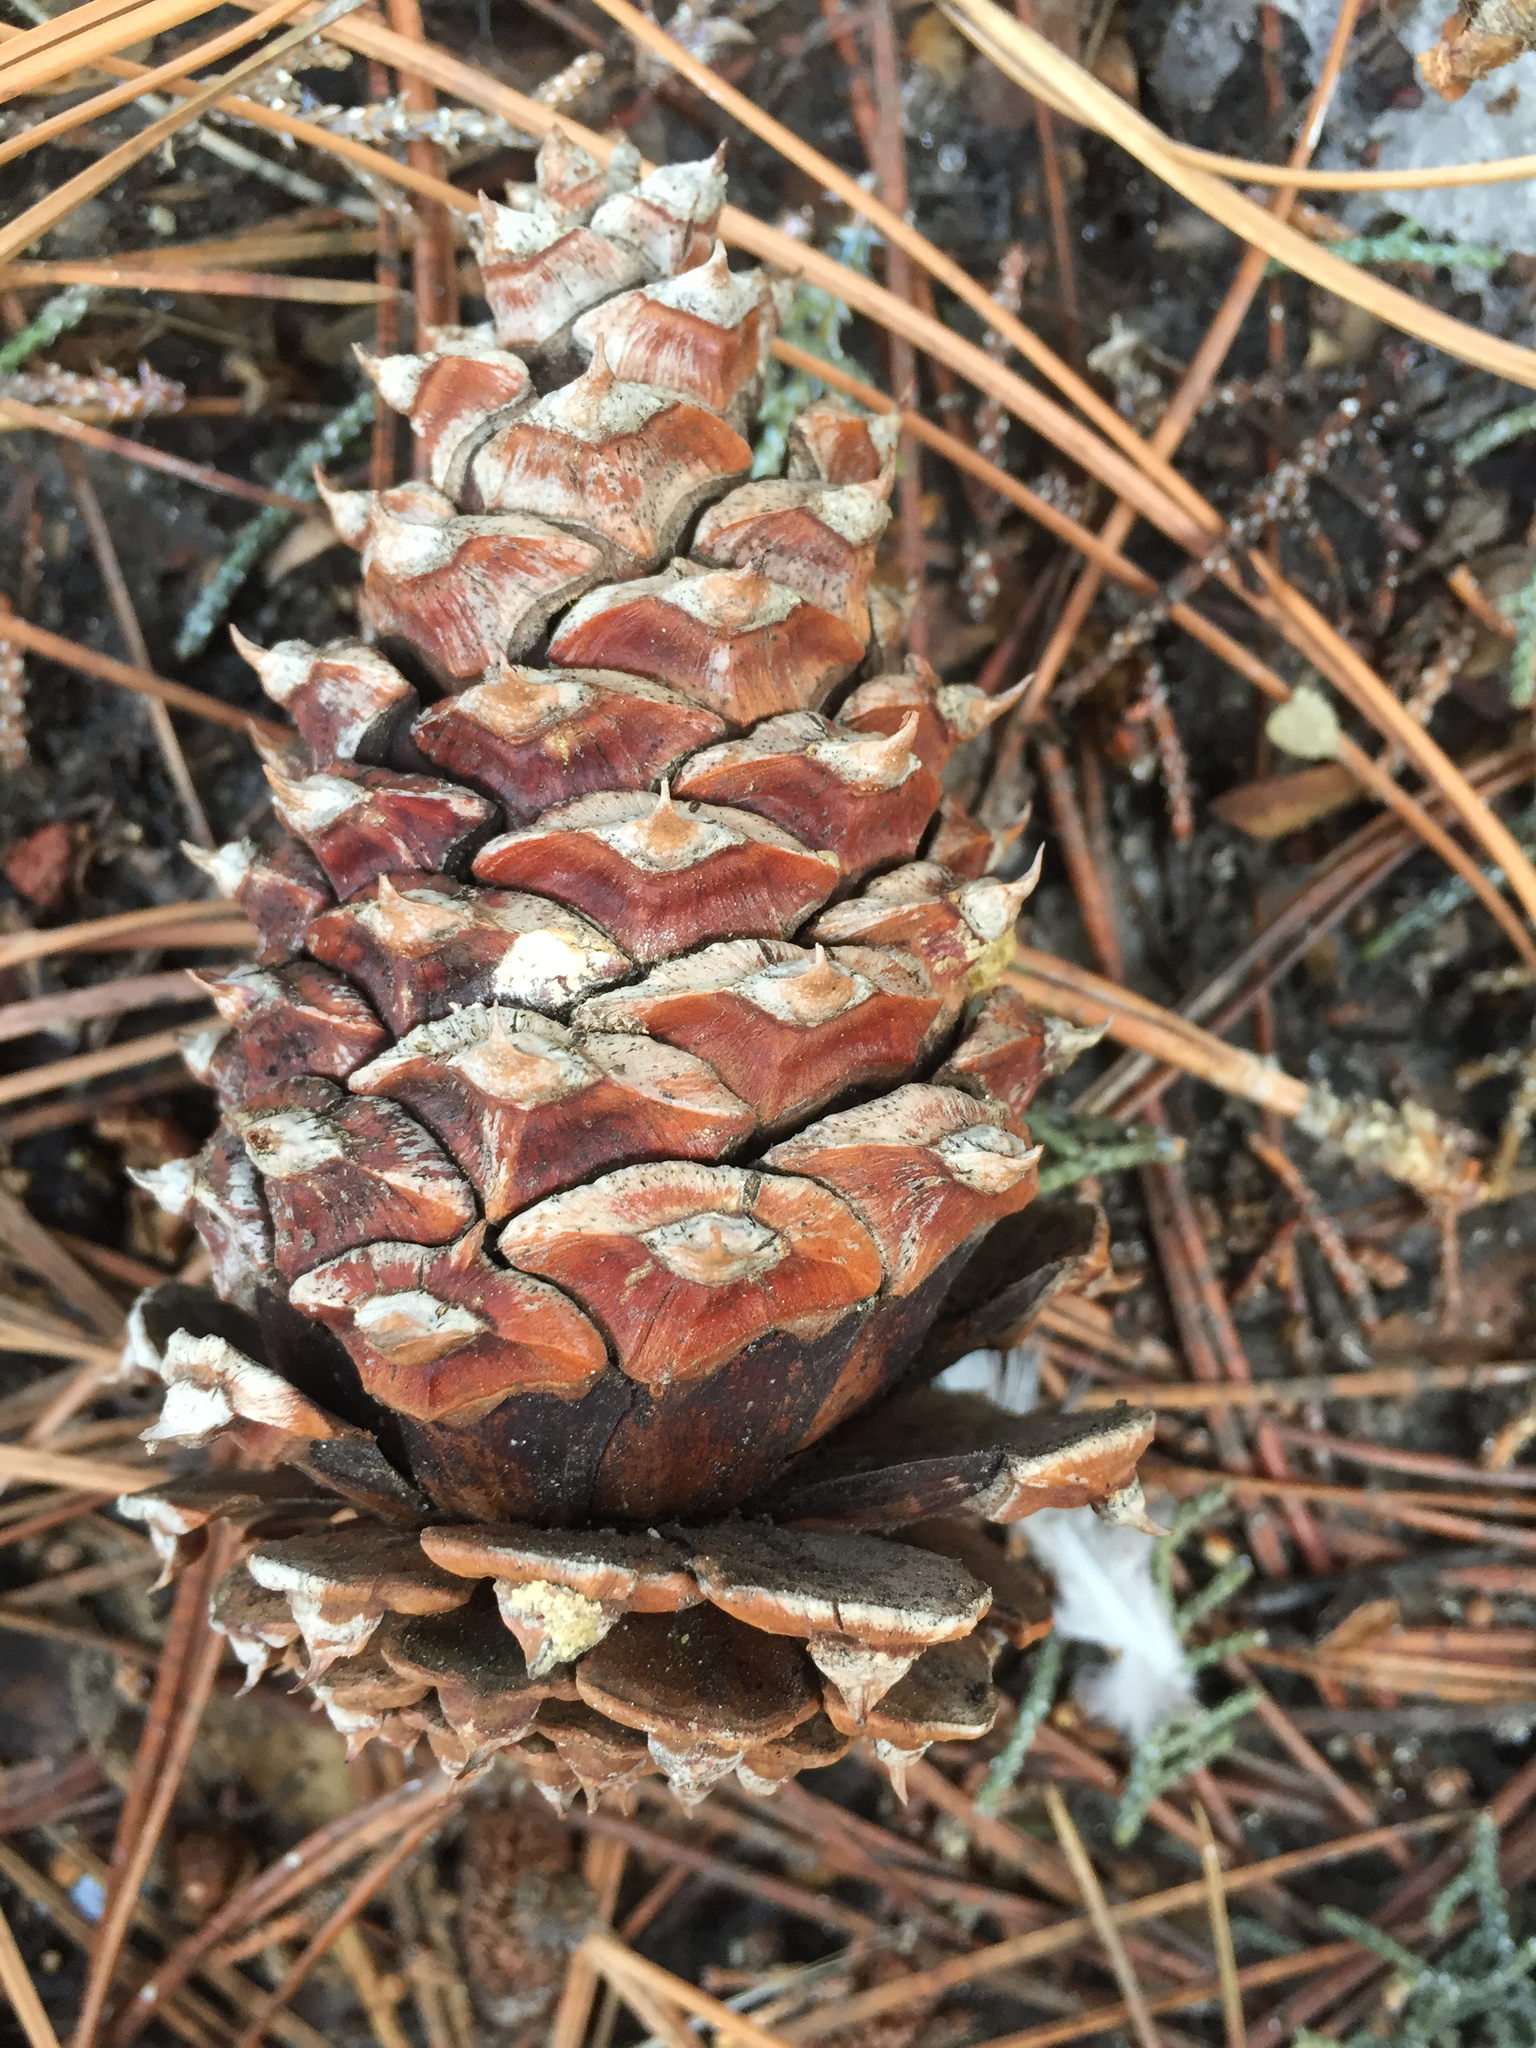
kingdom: Plantae
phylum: Tracheophyta
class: Pinopsida
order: Pinales
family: Pinaceae
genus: Pinus
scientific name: Pinus ponderosa
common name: Western yellow-pine
